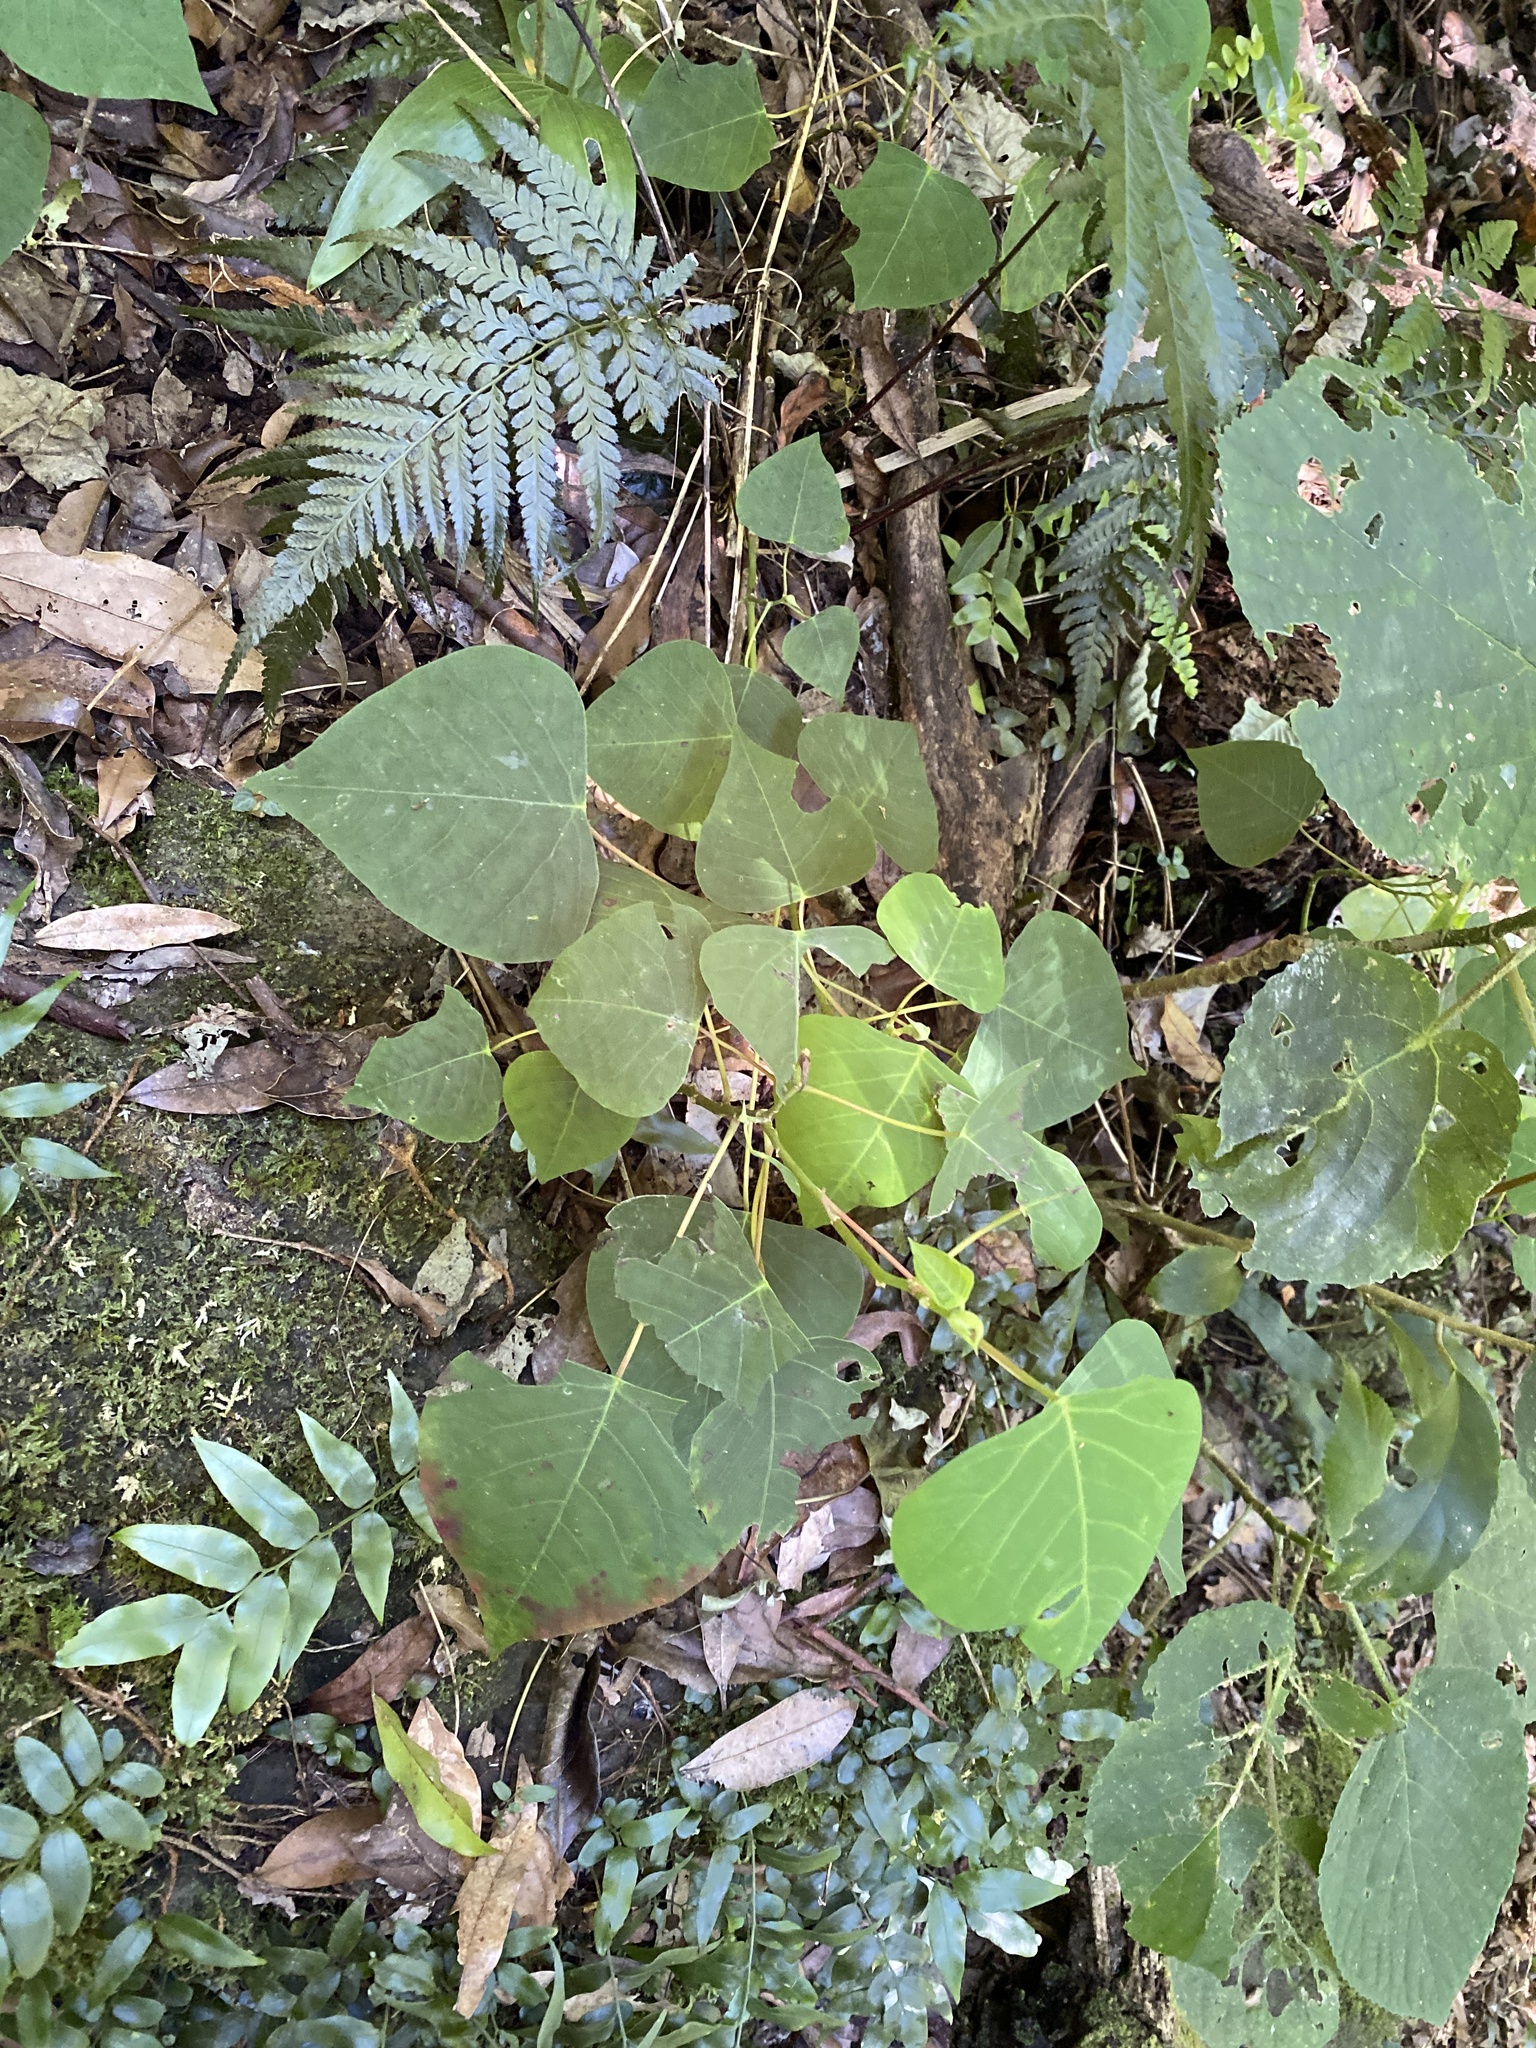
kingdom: Plantae
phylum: Tracheophyta
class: Magnoliopsida
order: Malpighiales
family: Euphorbiaceae
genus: Homalanthus
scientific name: Homalanthus populifolius
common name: Queensland poplar
